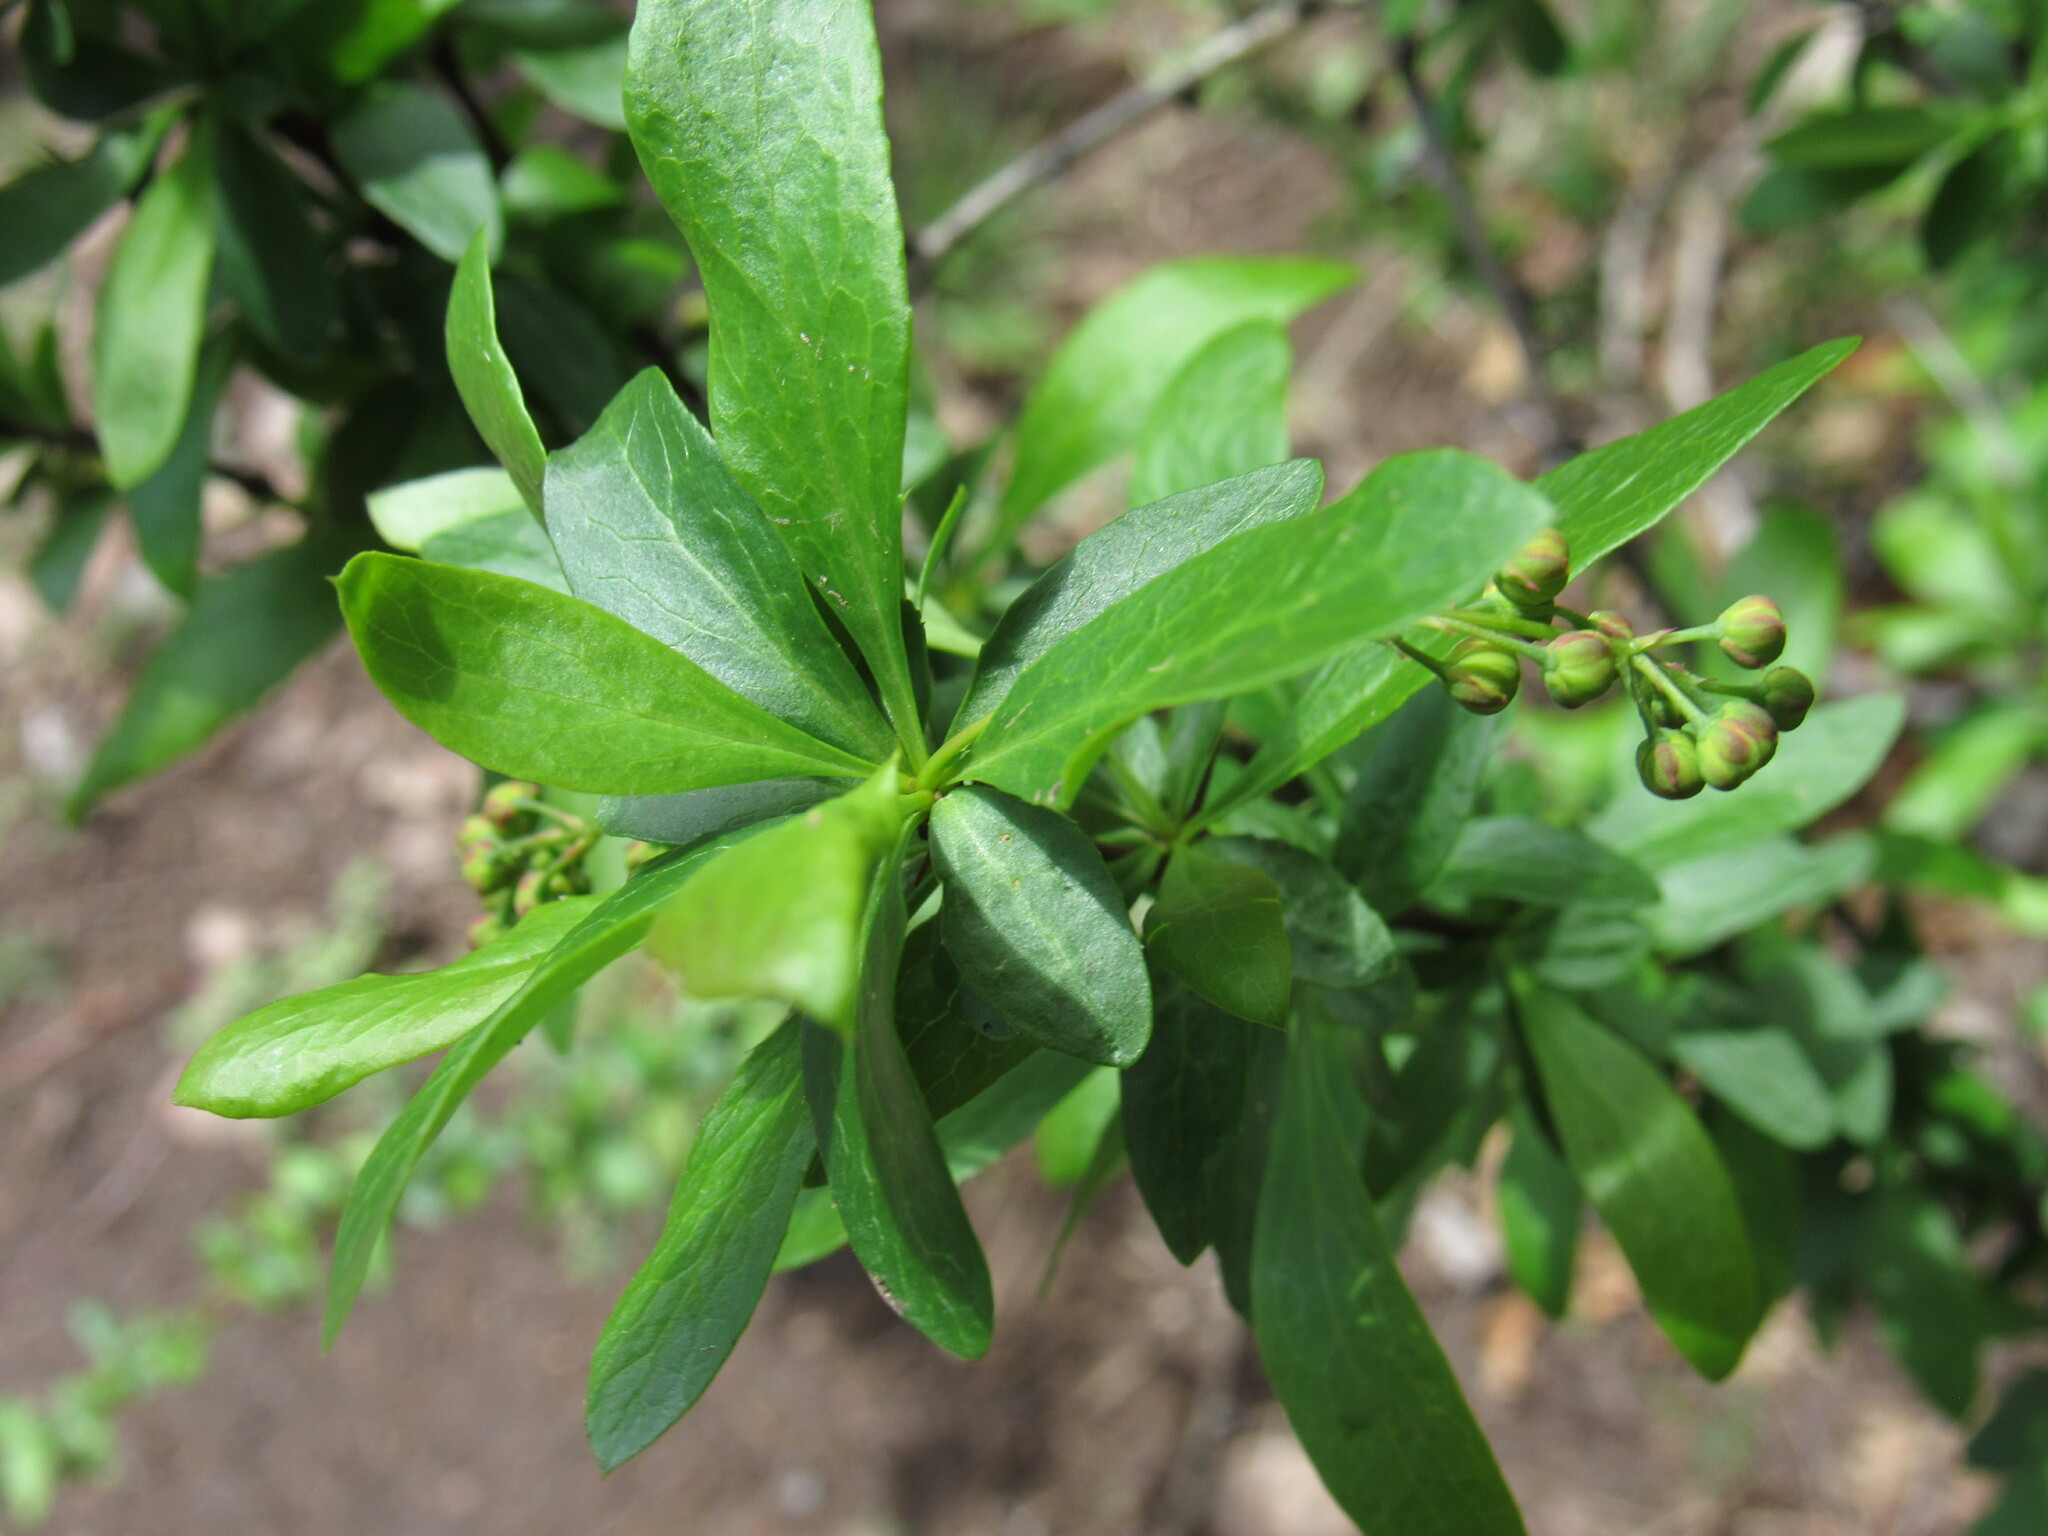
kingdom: Plantae
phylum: Tracheophyta
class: Magnoliopsida
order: Ranunculales
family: Berberidaceae
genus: Berberis
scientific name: Berberis fendleri
